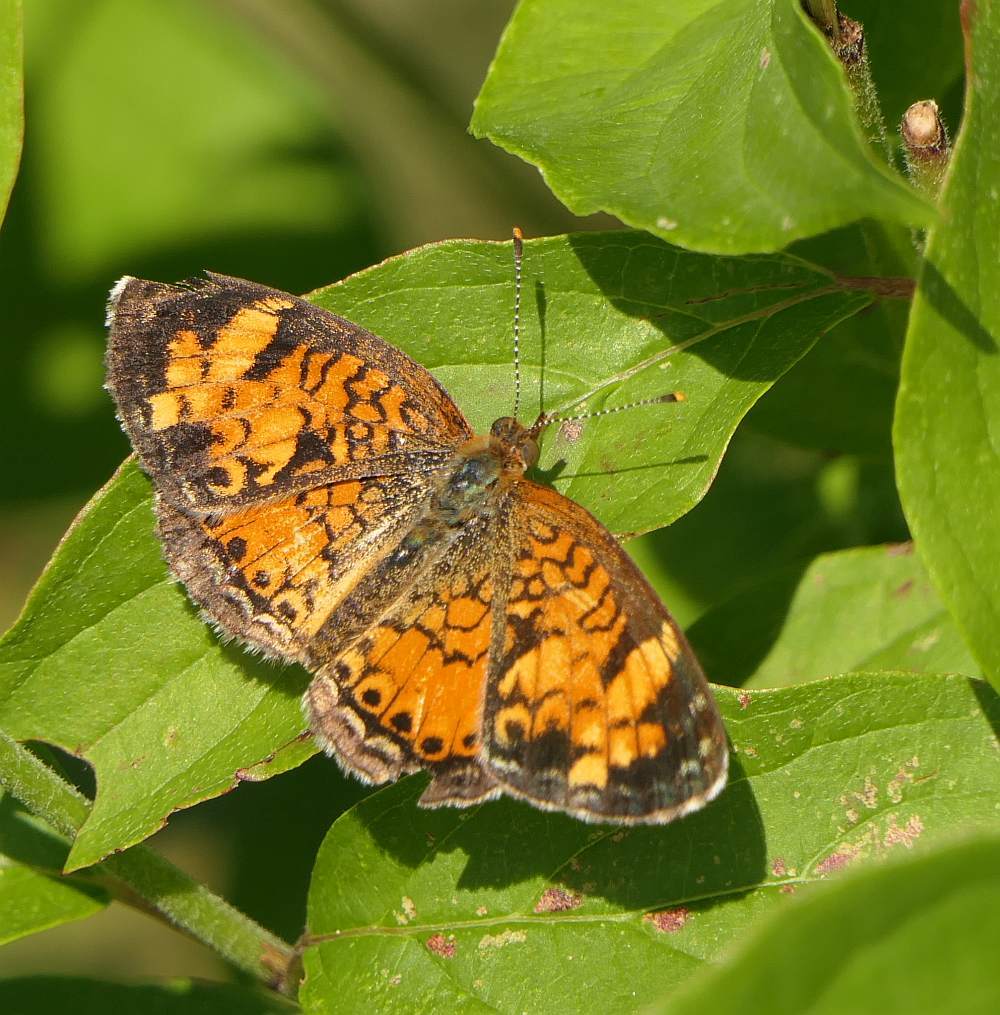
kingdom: Animalia
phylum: Arthropoda
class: Insecta
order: Lepidoptera
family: Nymphalidae
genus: Phyciodes
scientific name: Phyciodes tharos
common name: Pearl crescent
